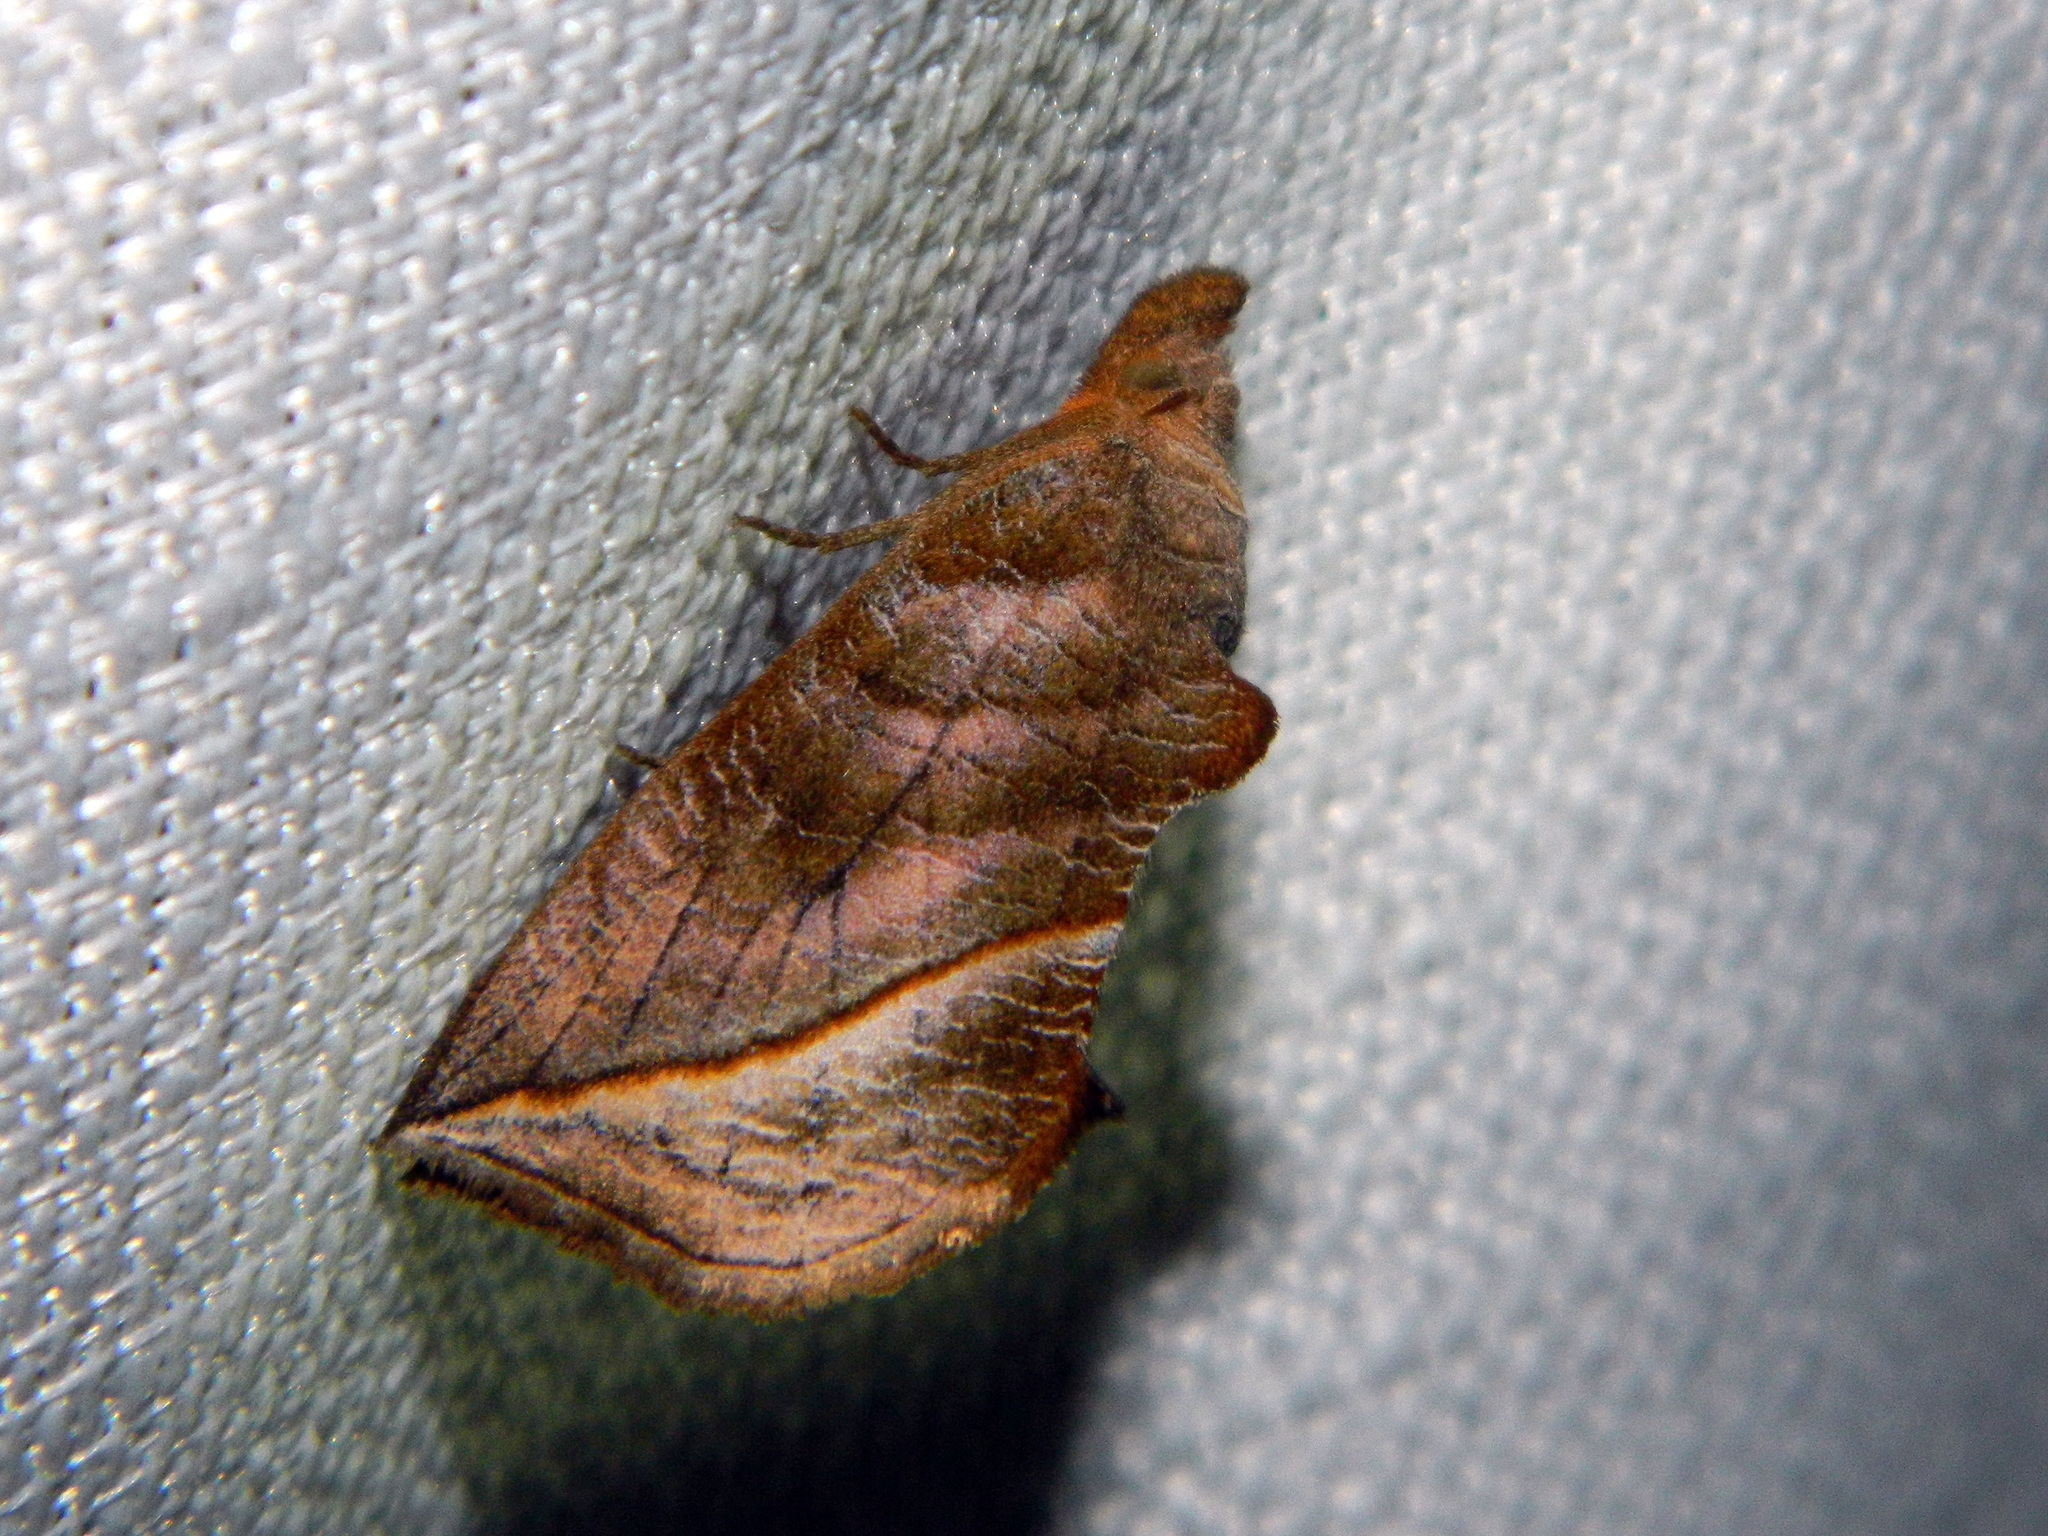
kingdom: Animalia
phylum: Arthropoda
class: Insecta
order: Lepidoptera
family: Erebidae
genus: Calyptra
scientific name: Calyptra canadensis
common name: Canadian owlet
